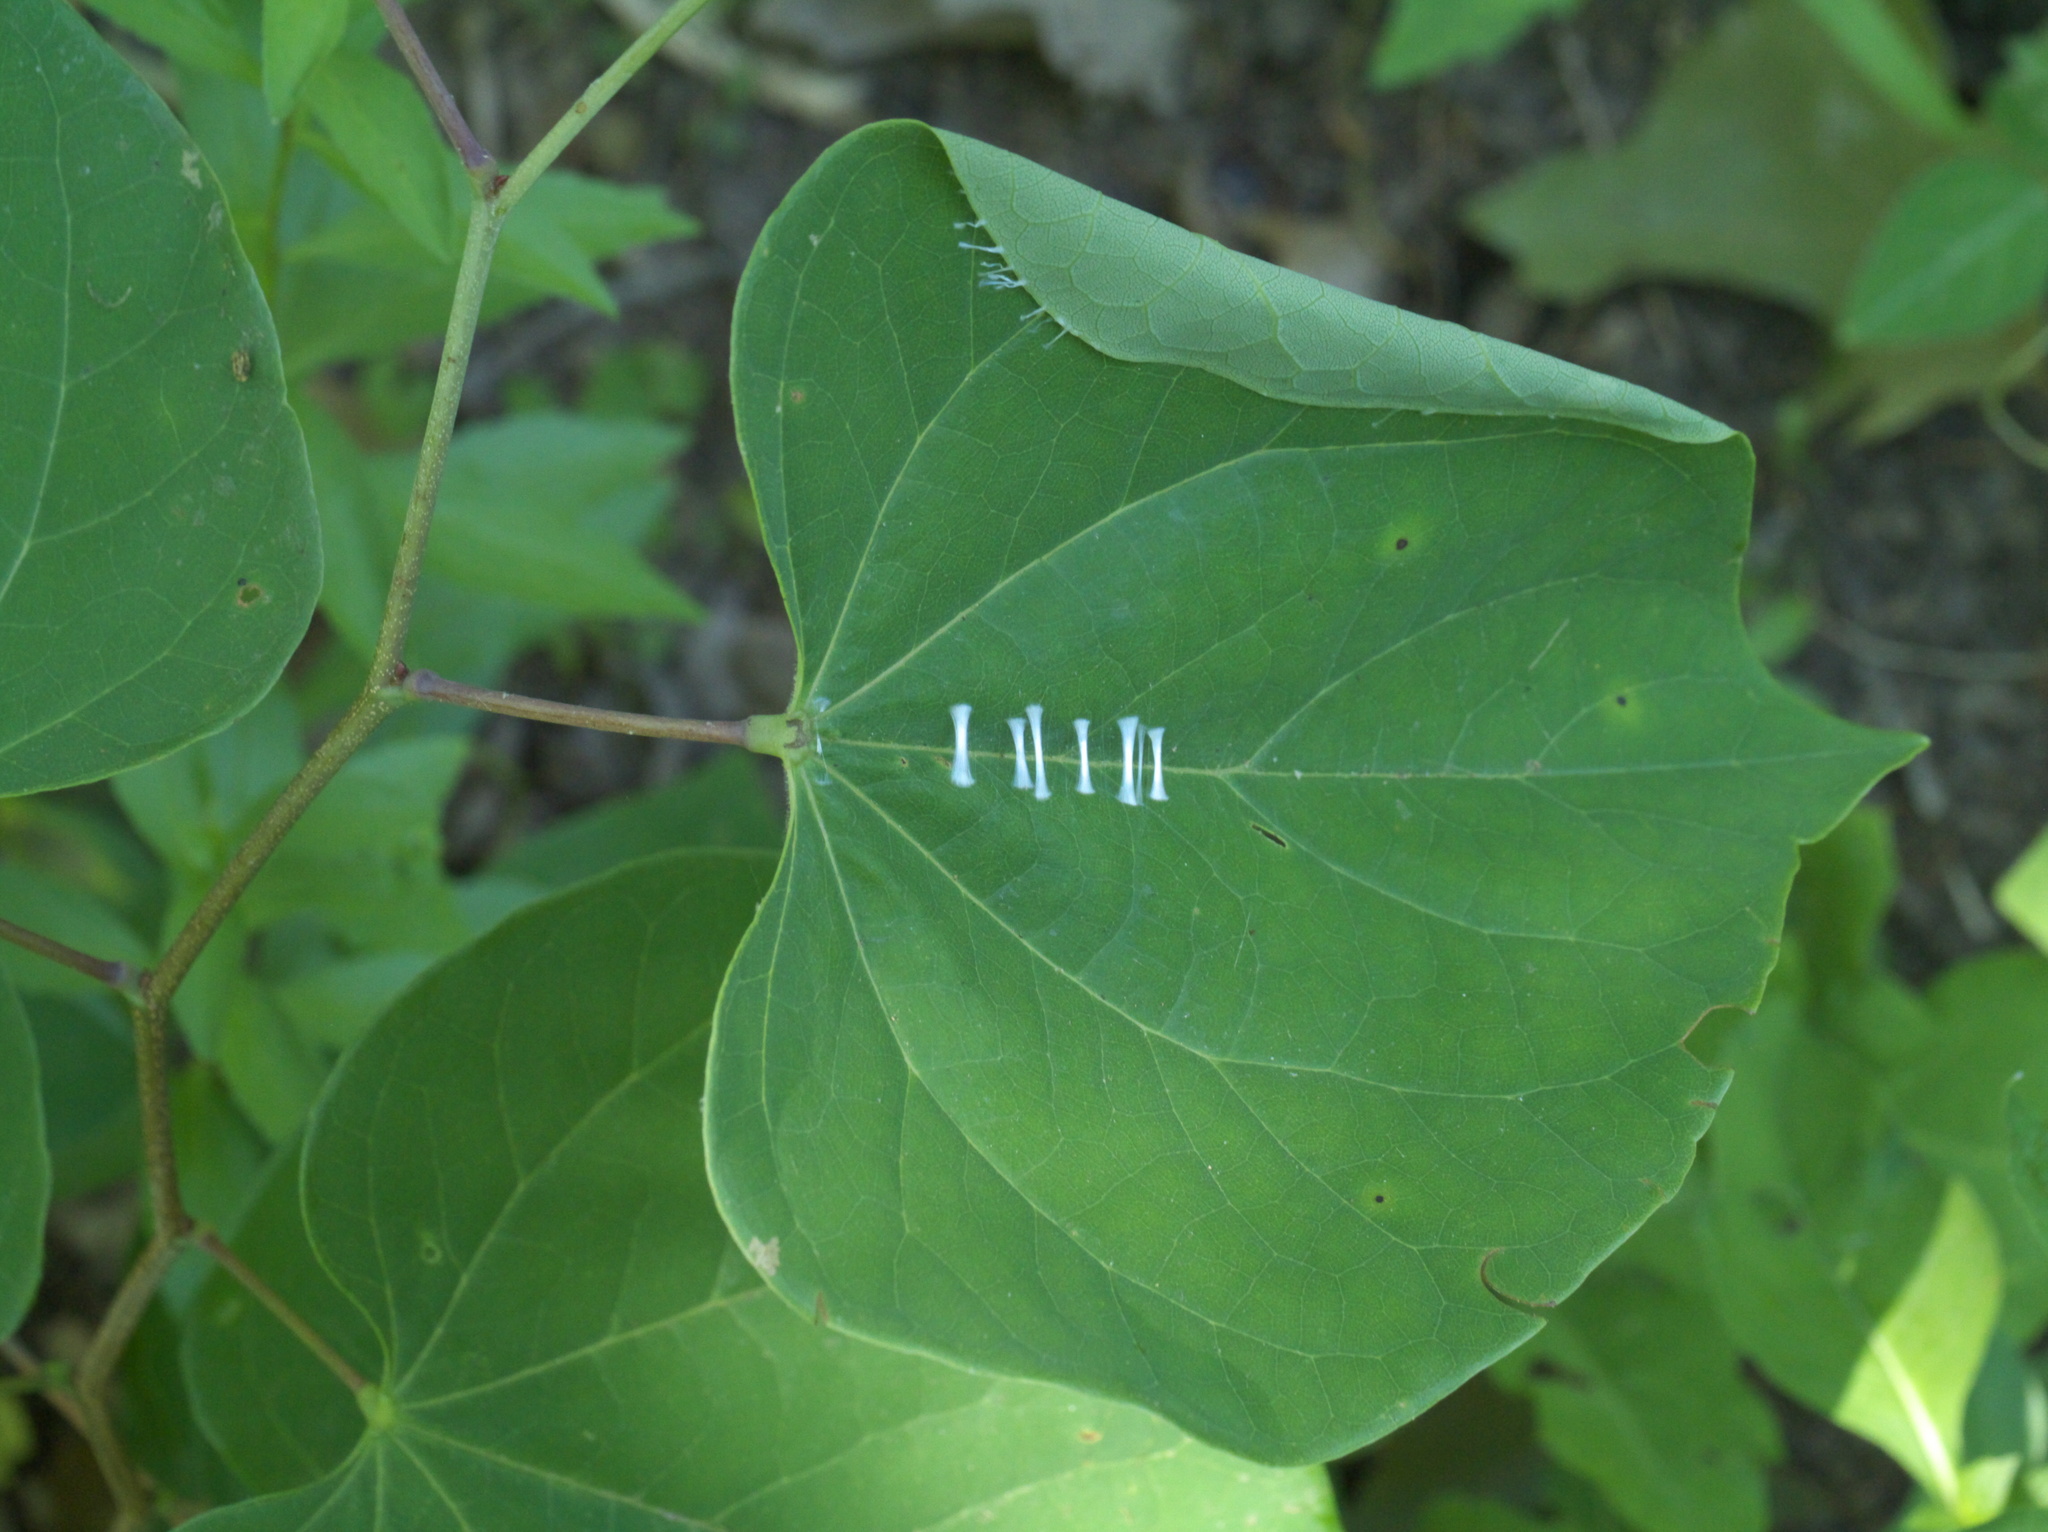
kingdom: Animalia
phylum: Arthropoda
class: Insecta
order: Lepidoptera
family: Gelechiidae
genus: Fascista
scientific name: Fascista cercerisella
